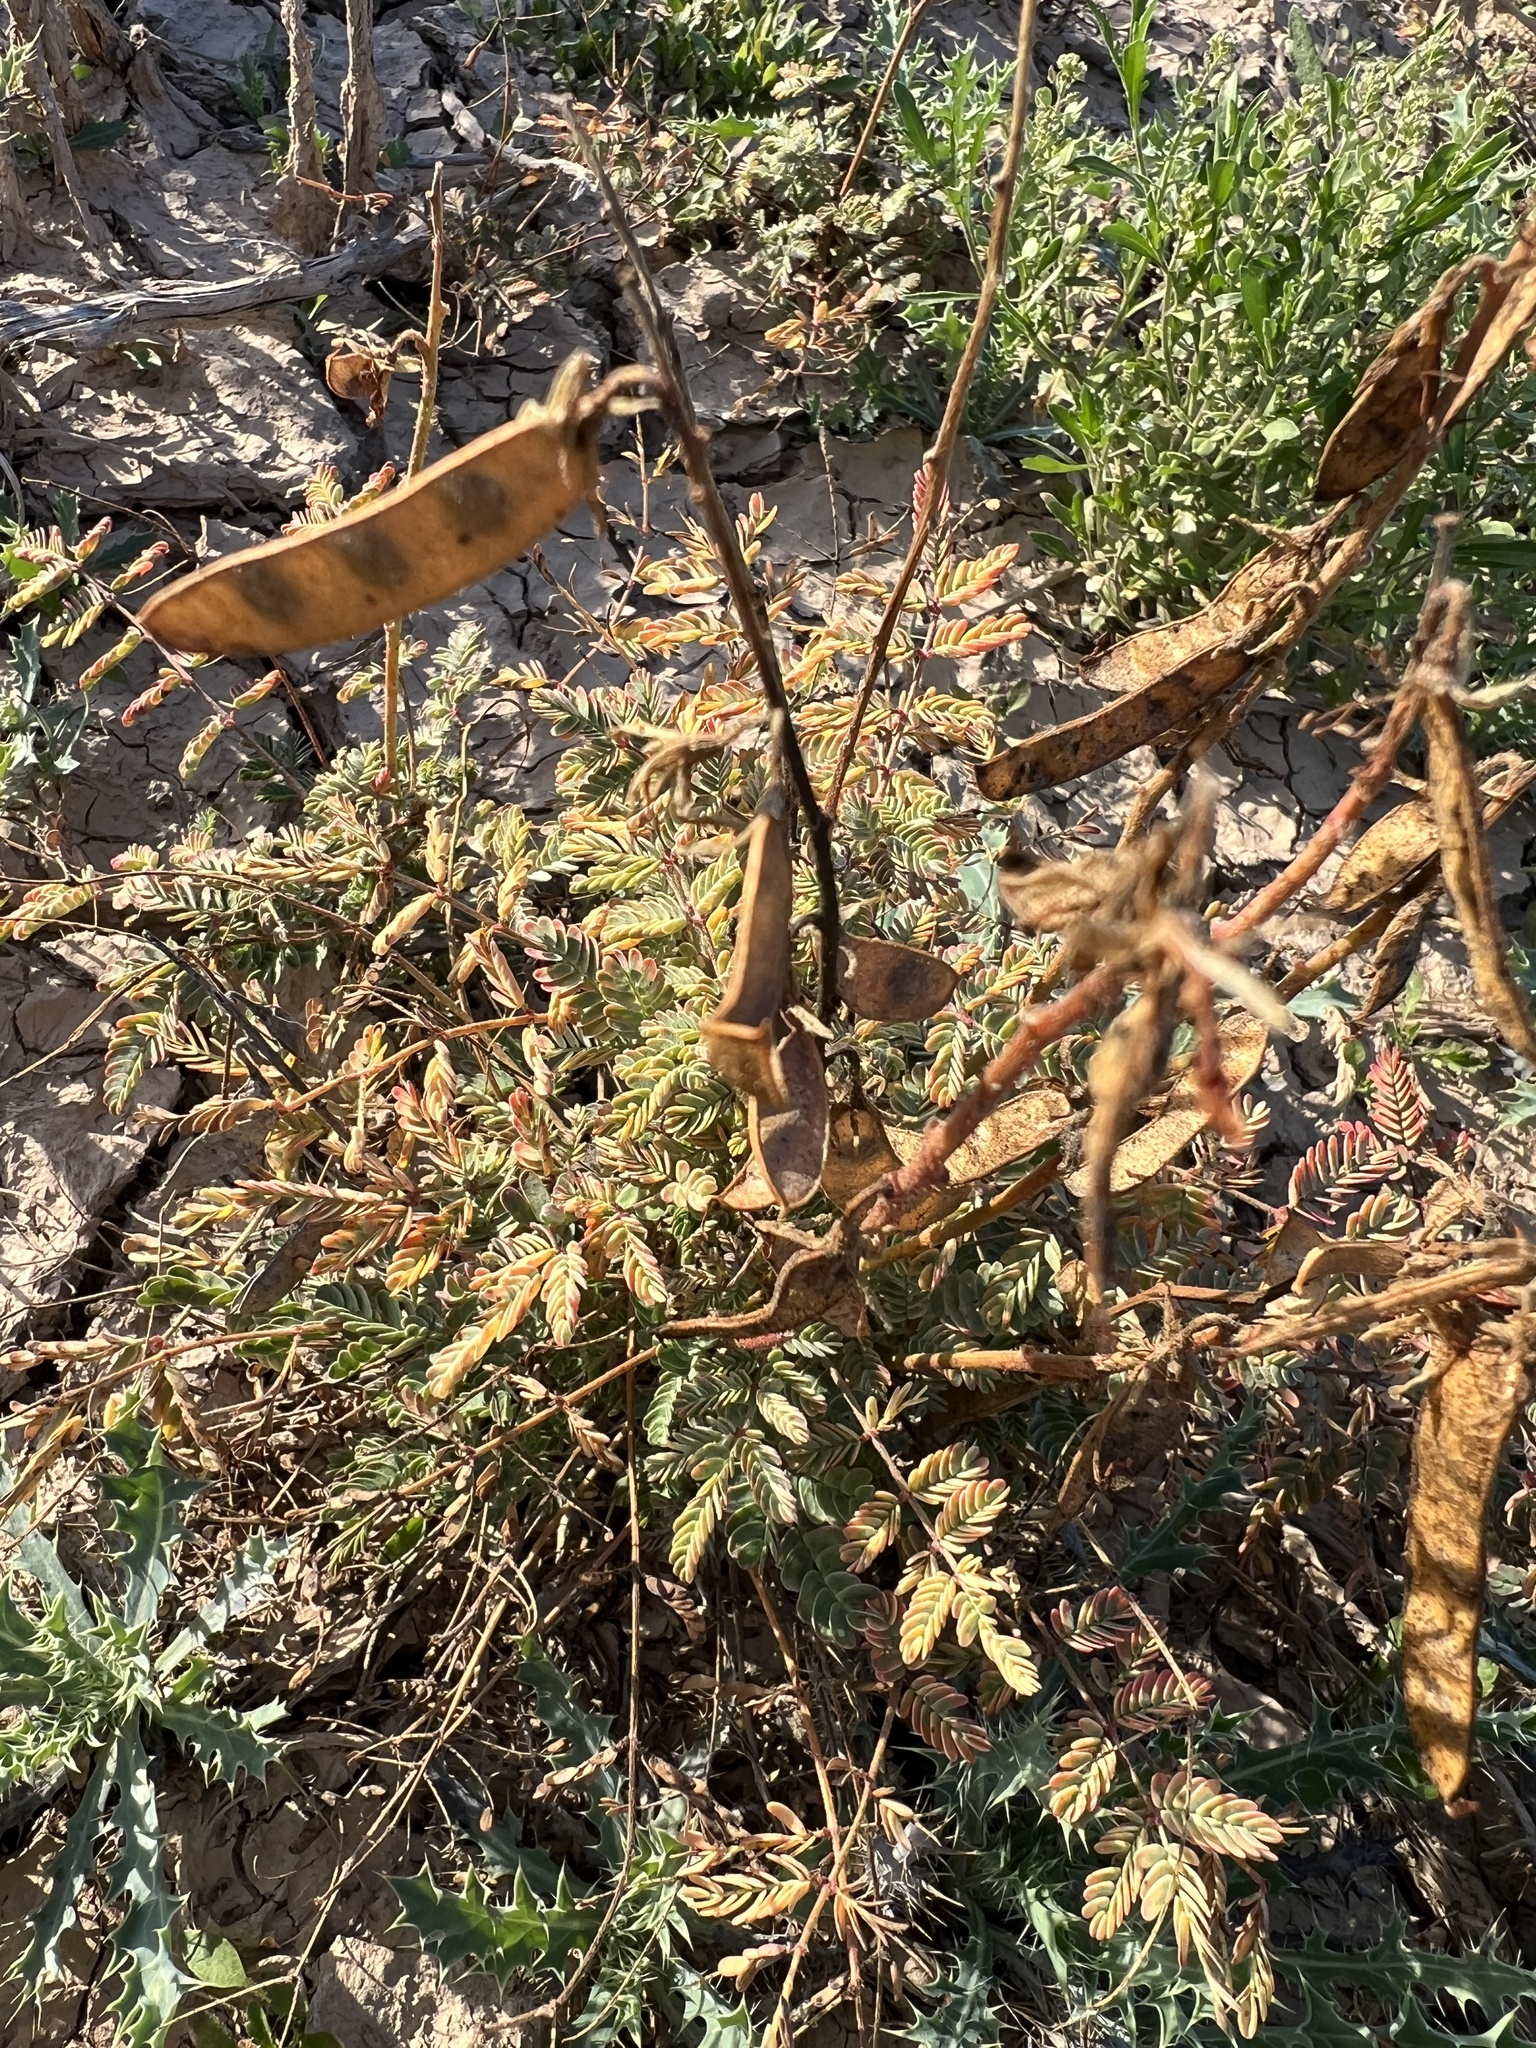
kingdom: Plantae
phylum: Tracheophyta
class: Magnoliopsida
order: Fabales
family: Fabaceae
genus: Hoffmannseggia
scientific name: Hoffmannseggia glauca
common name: Pignut
